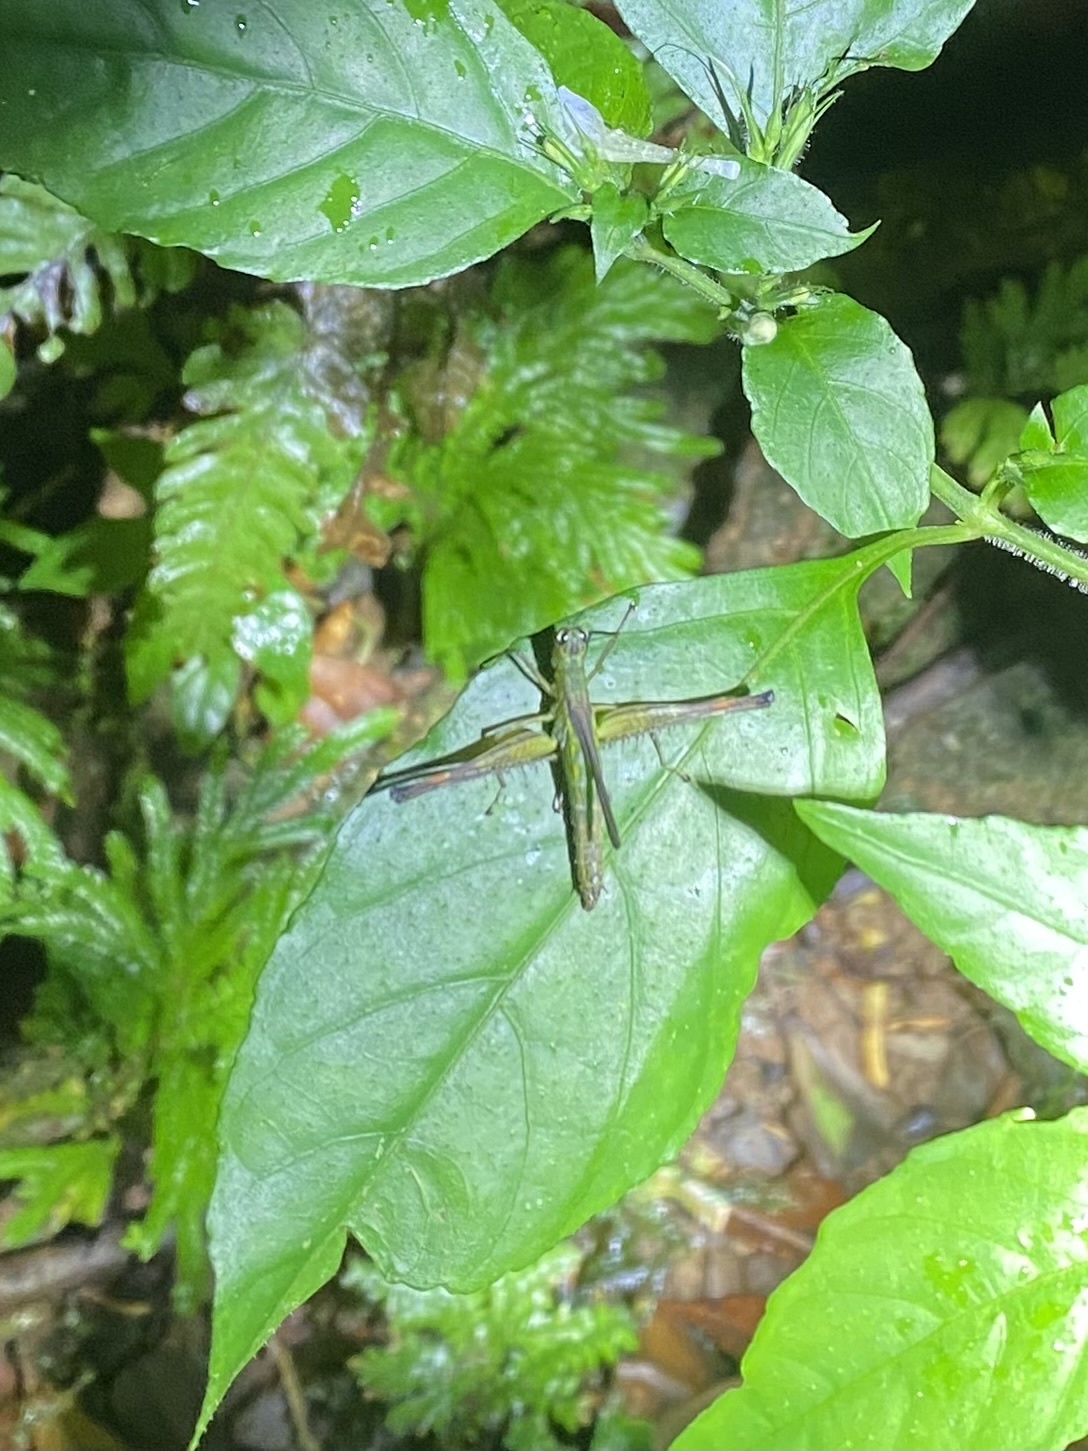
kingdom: Animalia
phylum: Arthropoda
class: Insecta
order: Orthoptera
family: Eumastacidae
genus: Homeomastax
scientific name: Homeomastax robertsi
